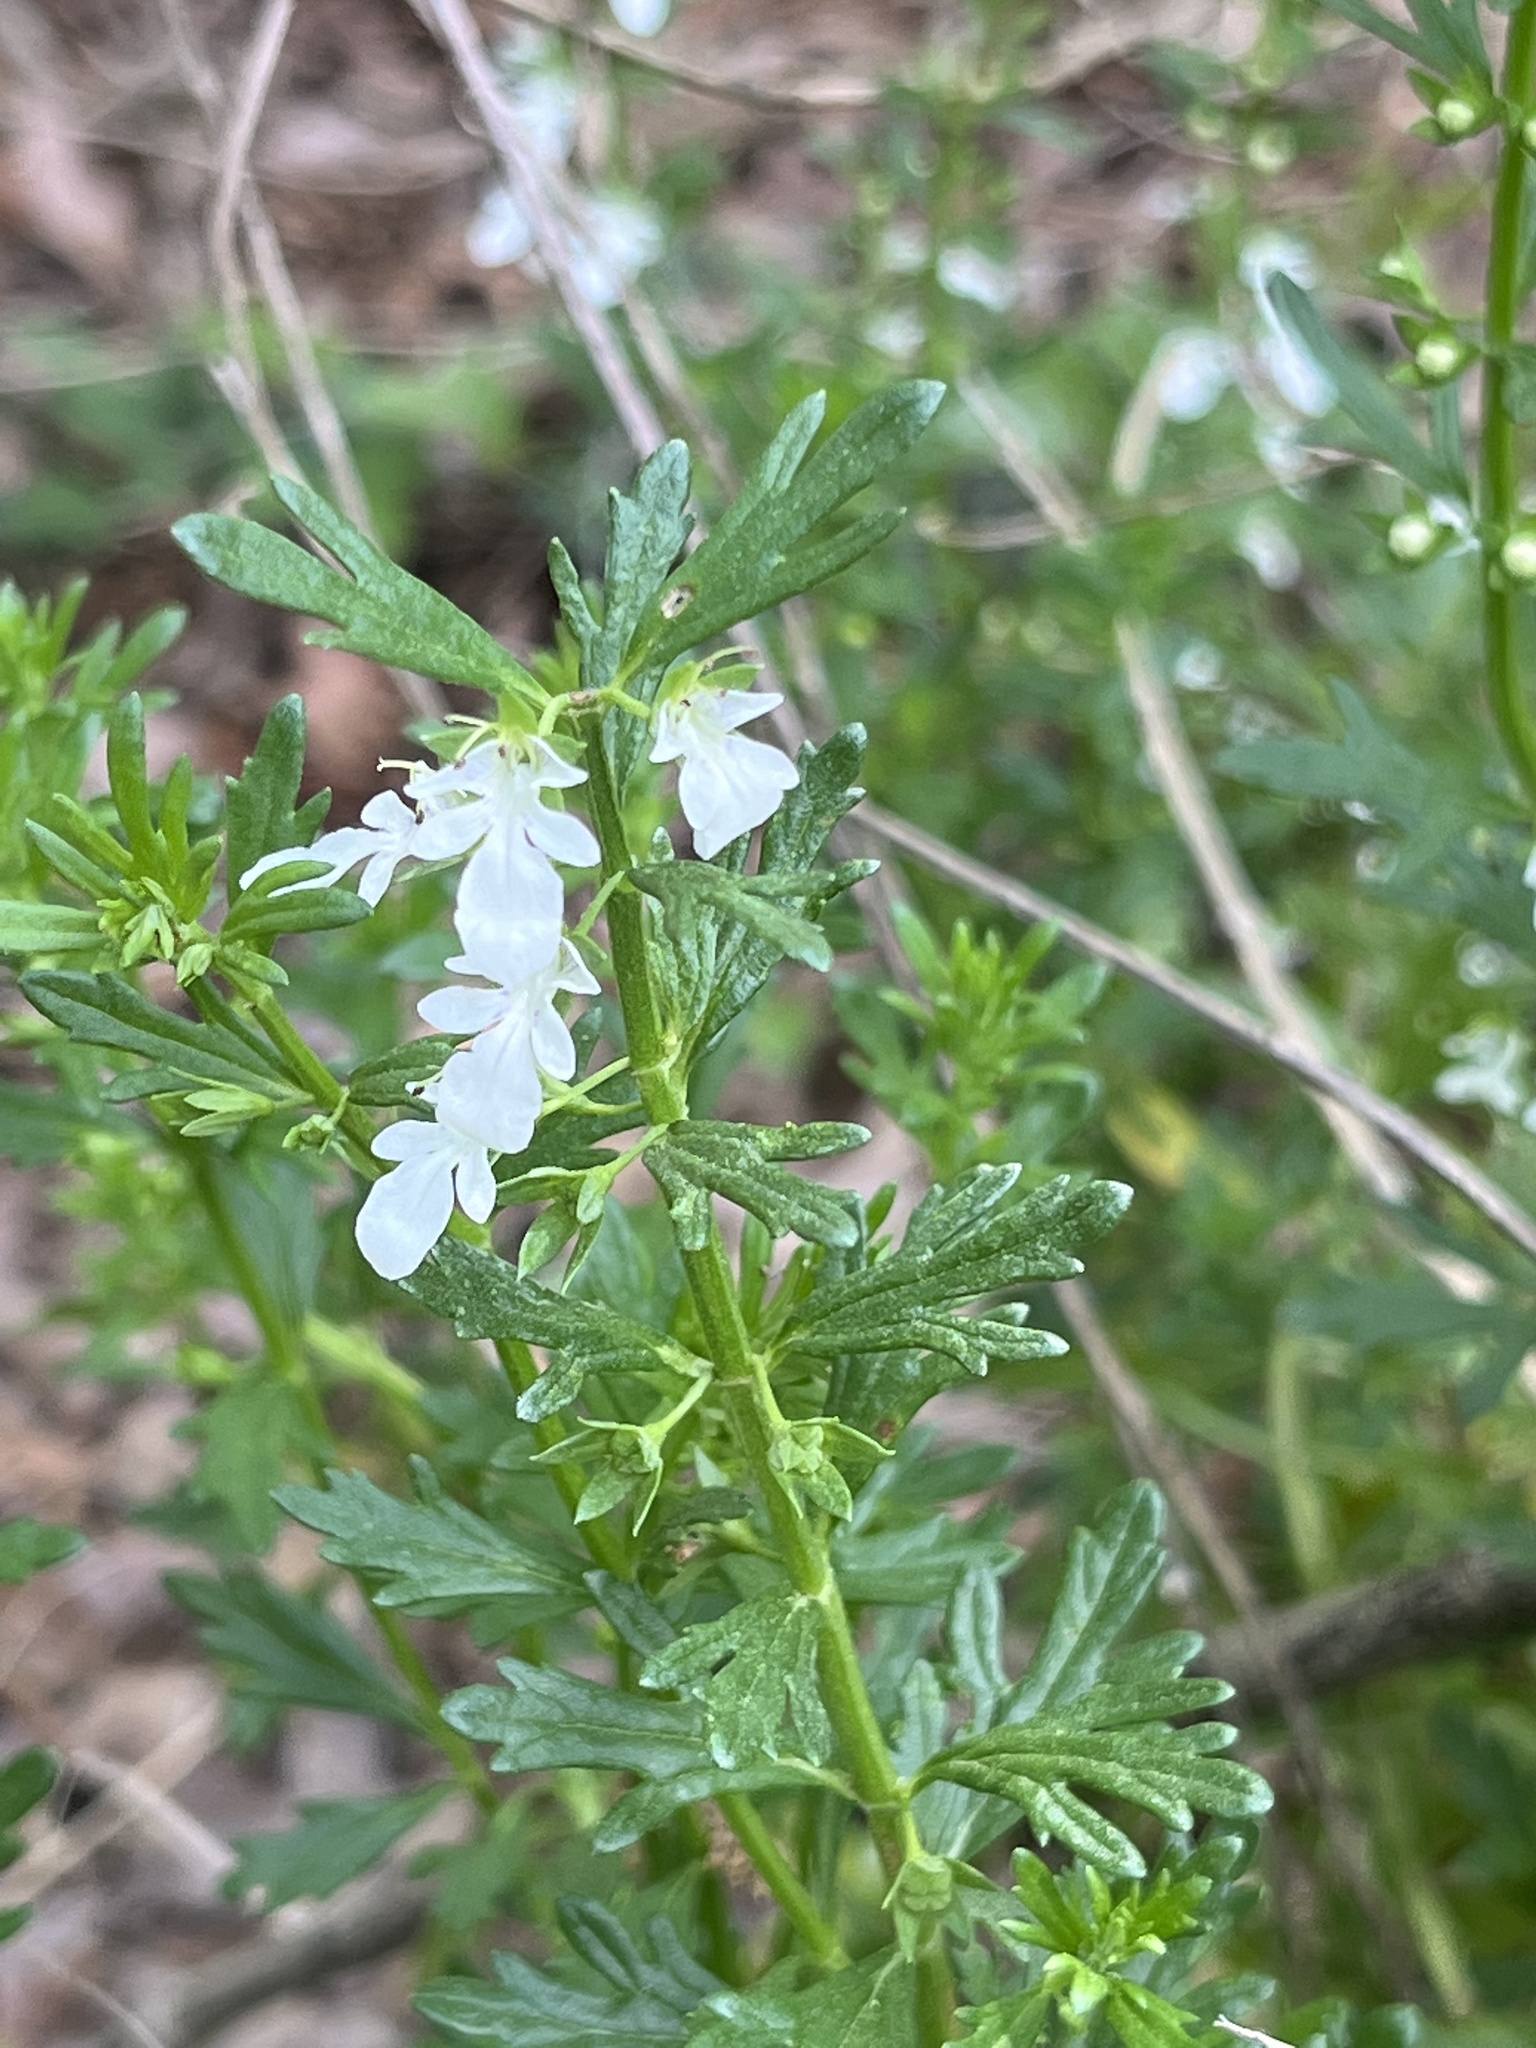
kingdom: Plantae
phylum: Tracheophyta
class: Magnoliopsida
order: Lamiales
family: Lamiaceae
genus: Teucrium
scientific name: Teucrium cubense
